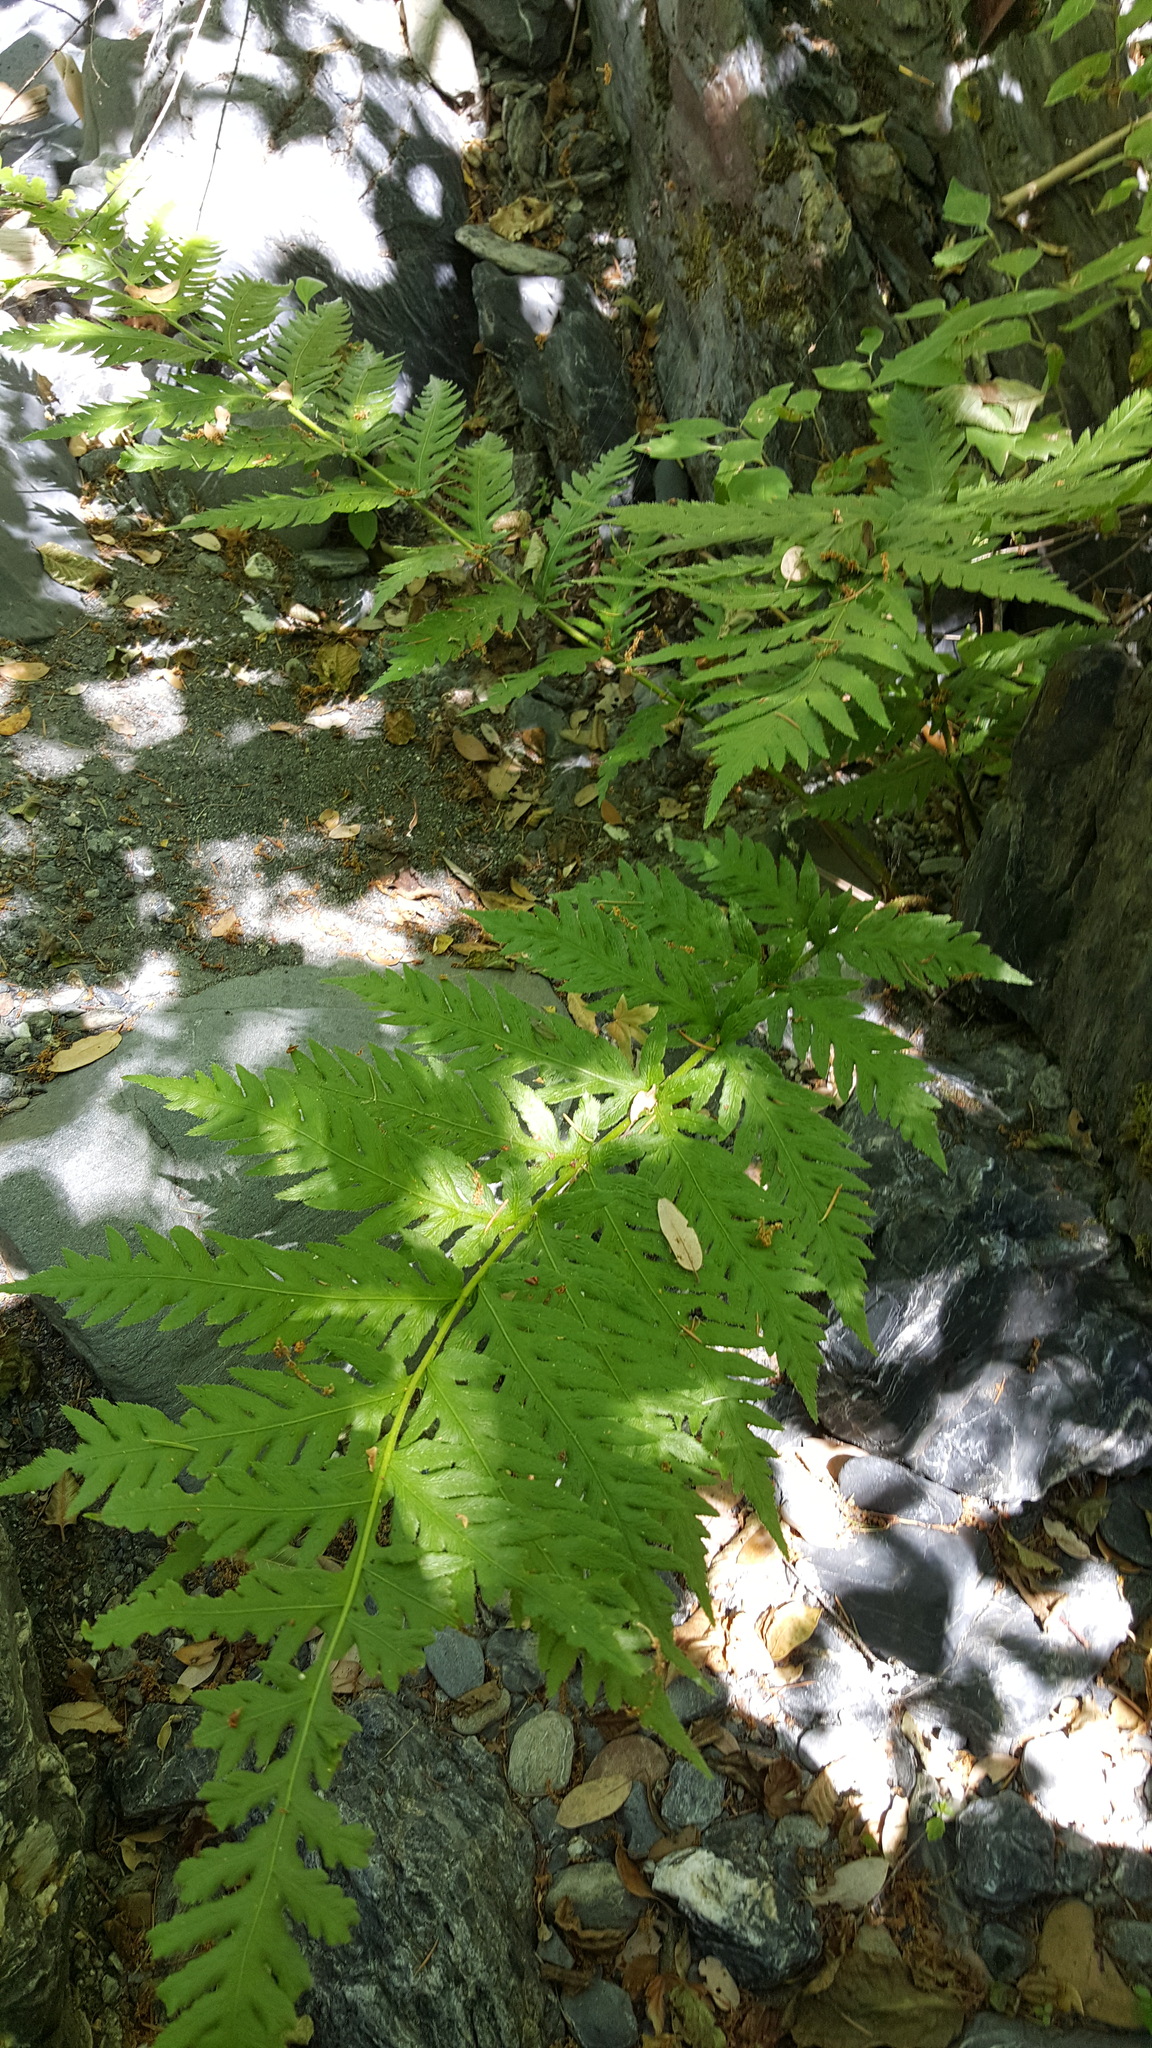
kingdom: Plantae
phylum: Tracheophyta
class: Polypodiopsida
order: Polypodiales
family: Blechnaceae
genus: Woodwardia
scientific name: Woodwardia fimbriata
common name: Giant chain fern
